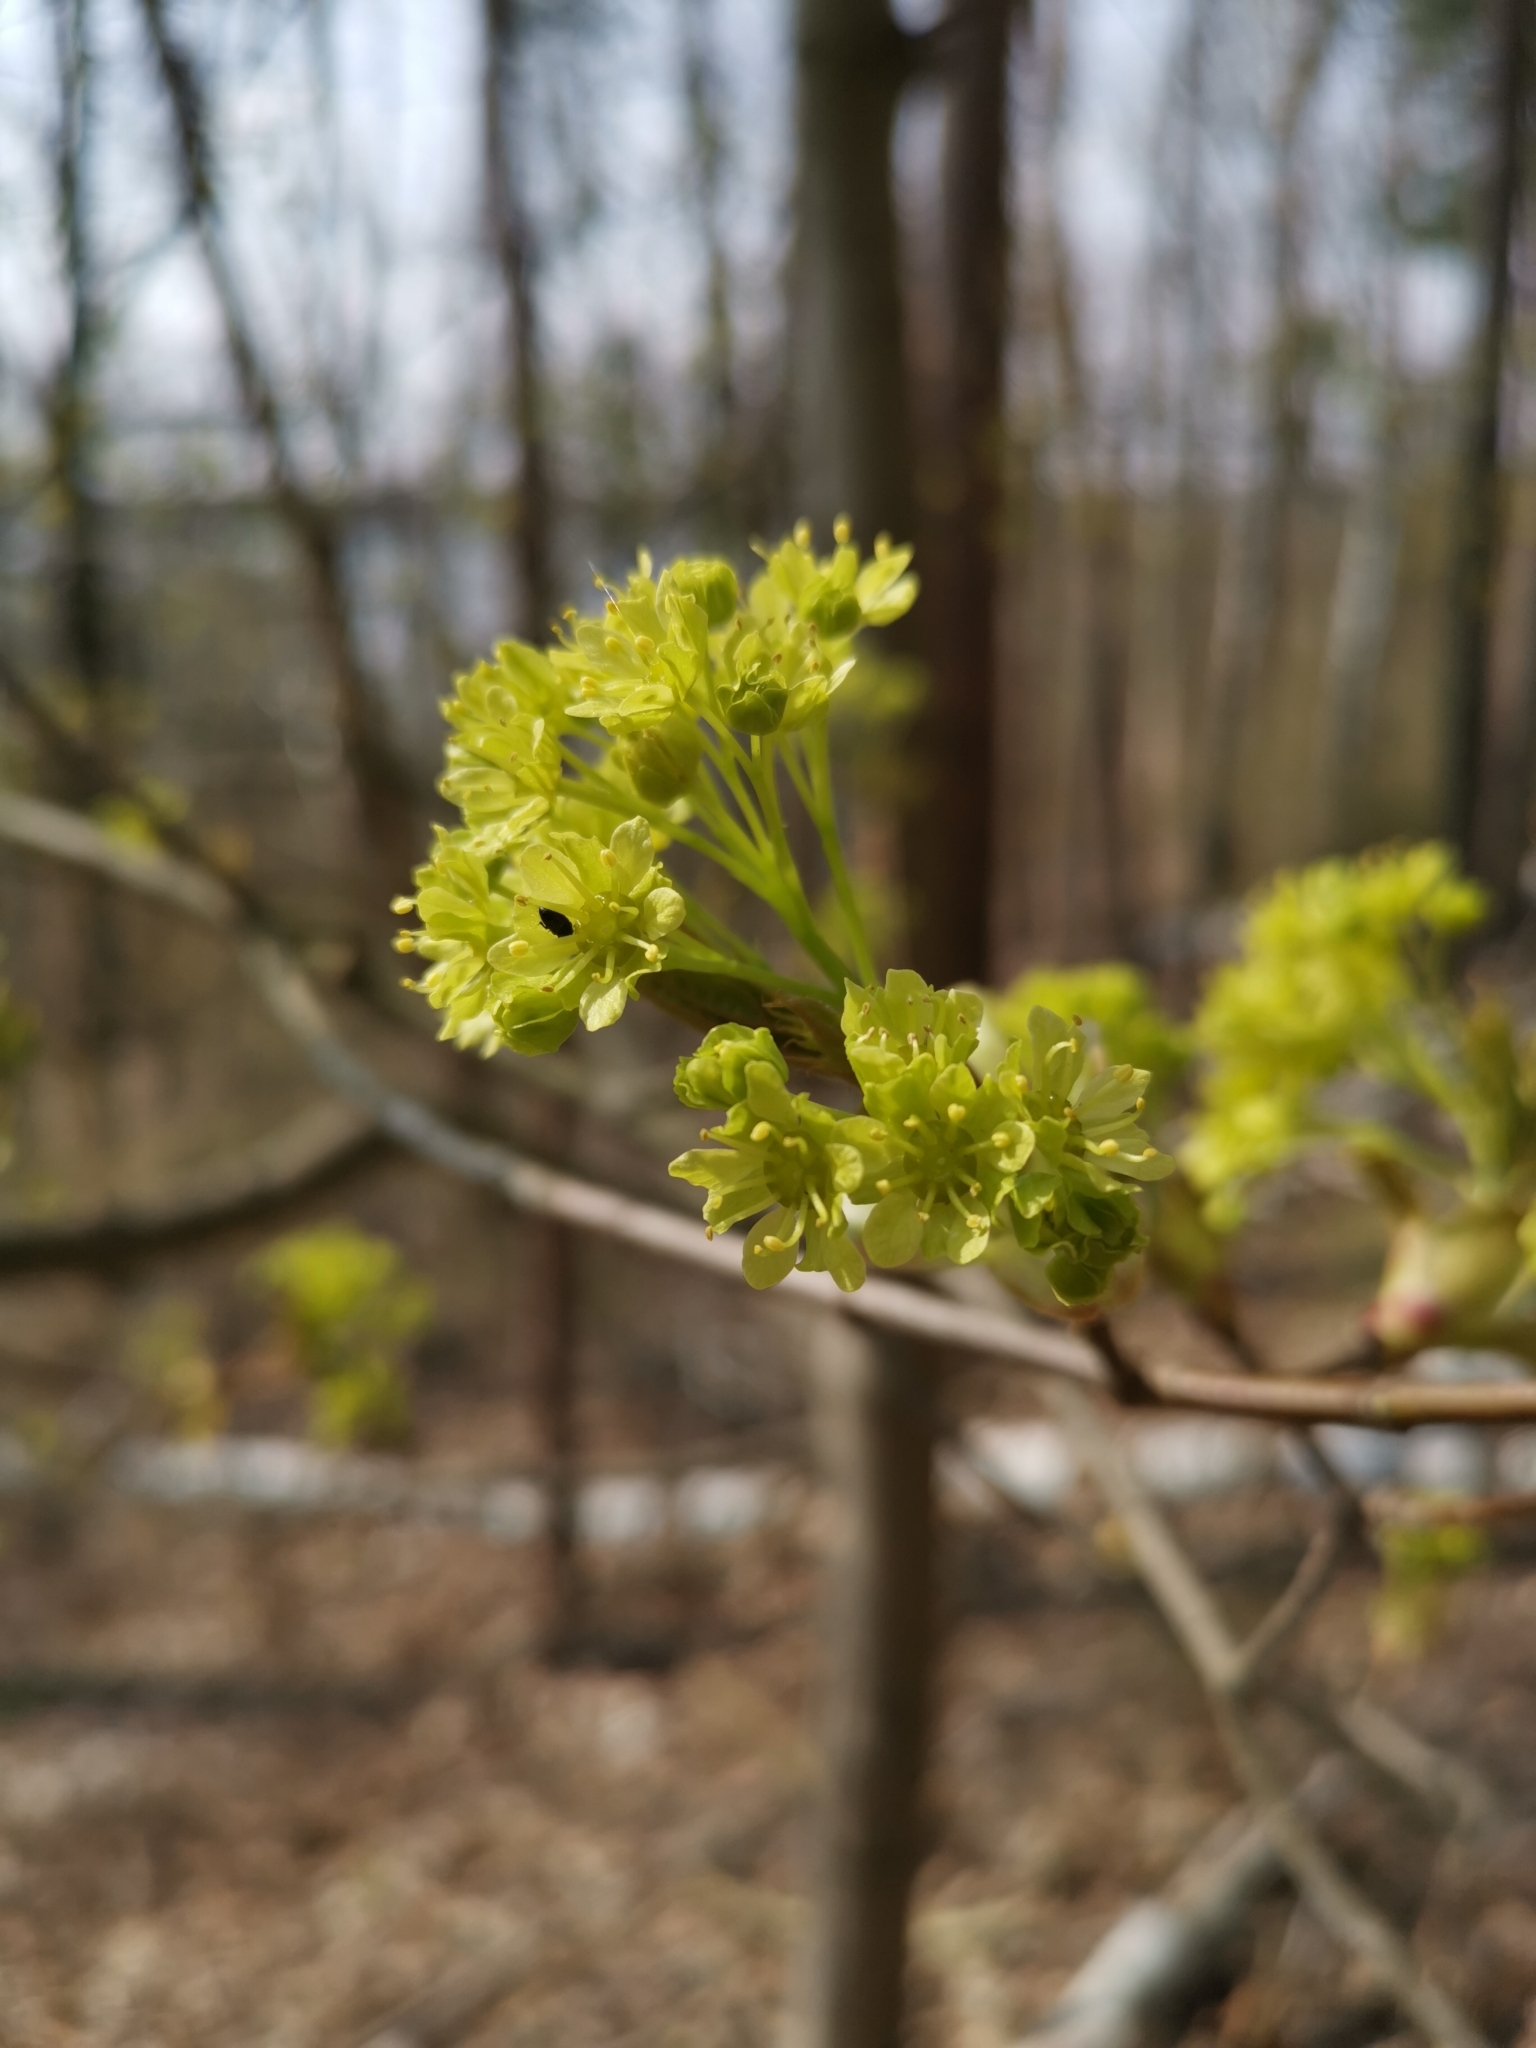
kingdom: Plantae
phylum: Tracheophyta
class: Magnoliopsida
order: Sapindales
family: Sapindaceae
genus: Acer
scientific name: Acer platanoides
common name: Norway maple
